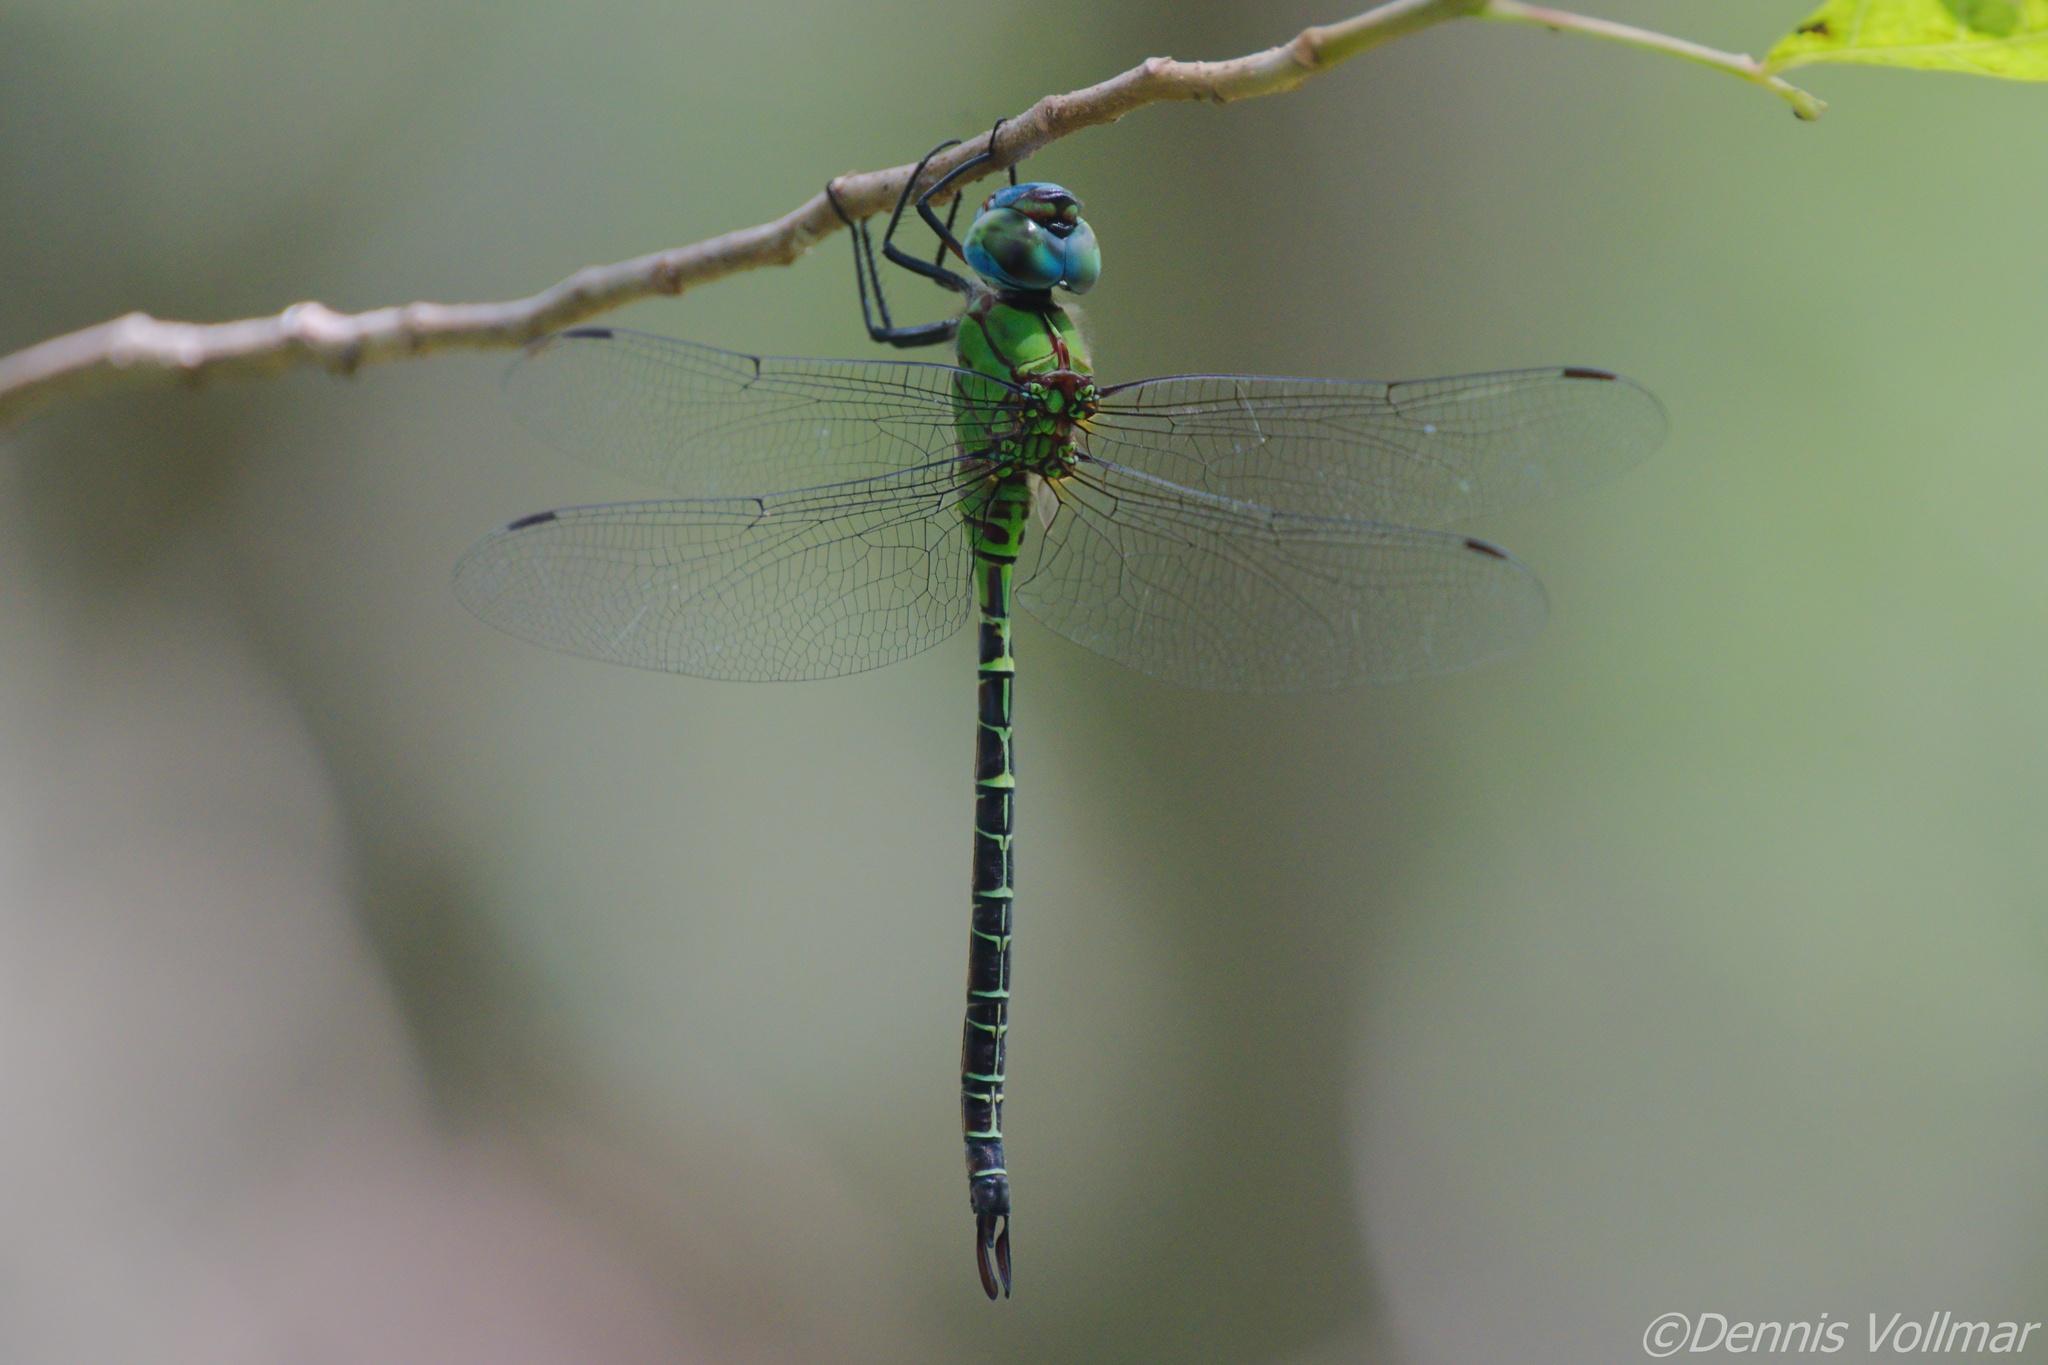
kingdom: Animalia
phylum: Arthropoda
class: Insecta
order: Odonata
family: Aeshnidae
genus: Coryphaeschna
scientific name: Coryphaeschna adnexa
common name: Blue-faced darner
